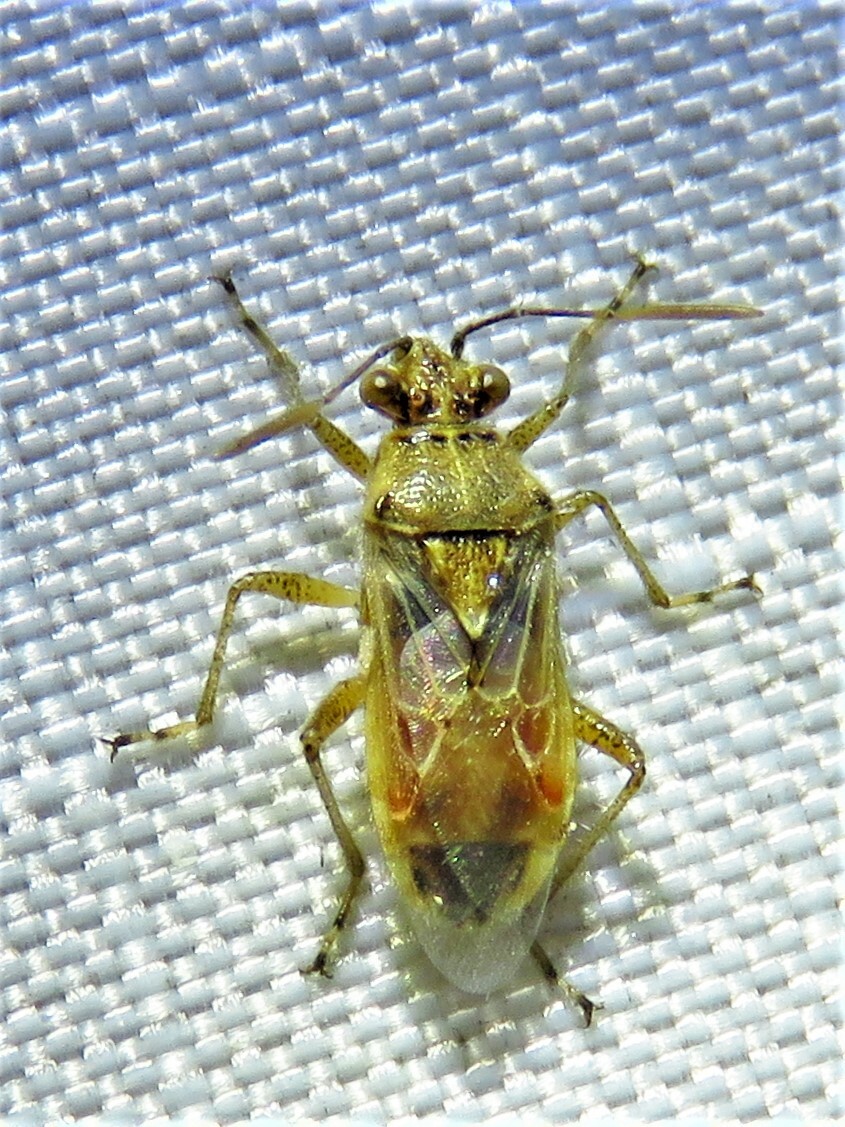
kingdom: Animalia
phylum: Arthropoda
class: Insecta
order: Hemiptera
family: Rhopalidae
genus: Liorhyssus
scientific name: Liorhyssus hyalinus
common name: Scentless plant bug
